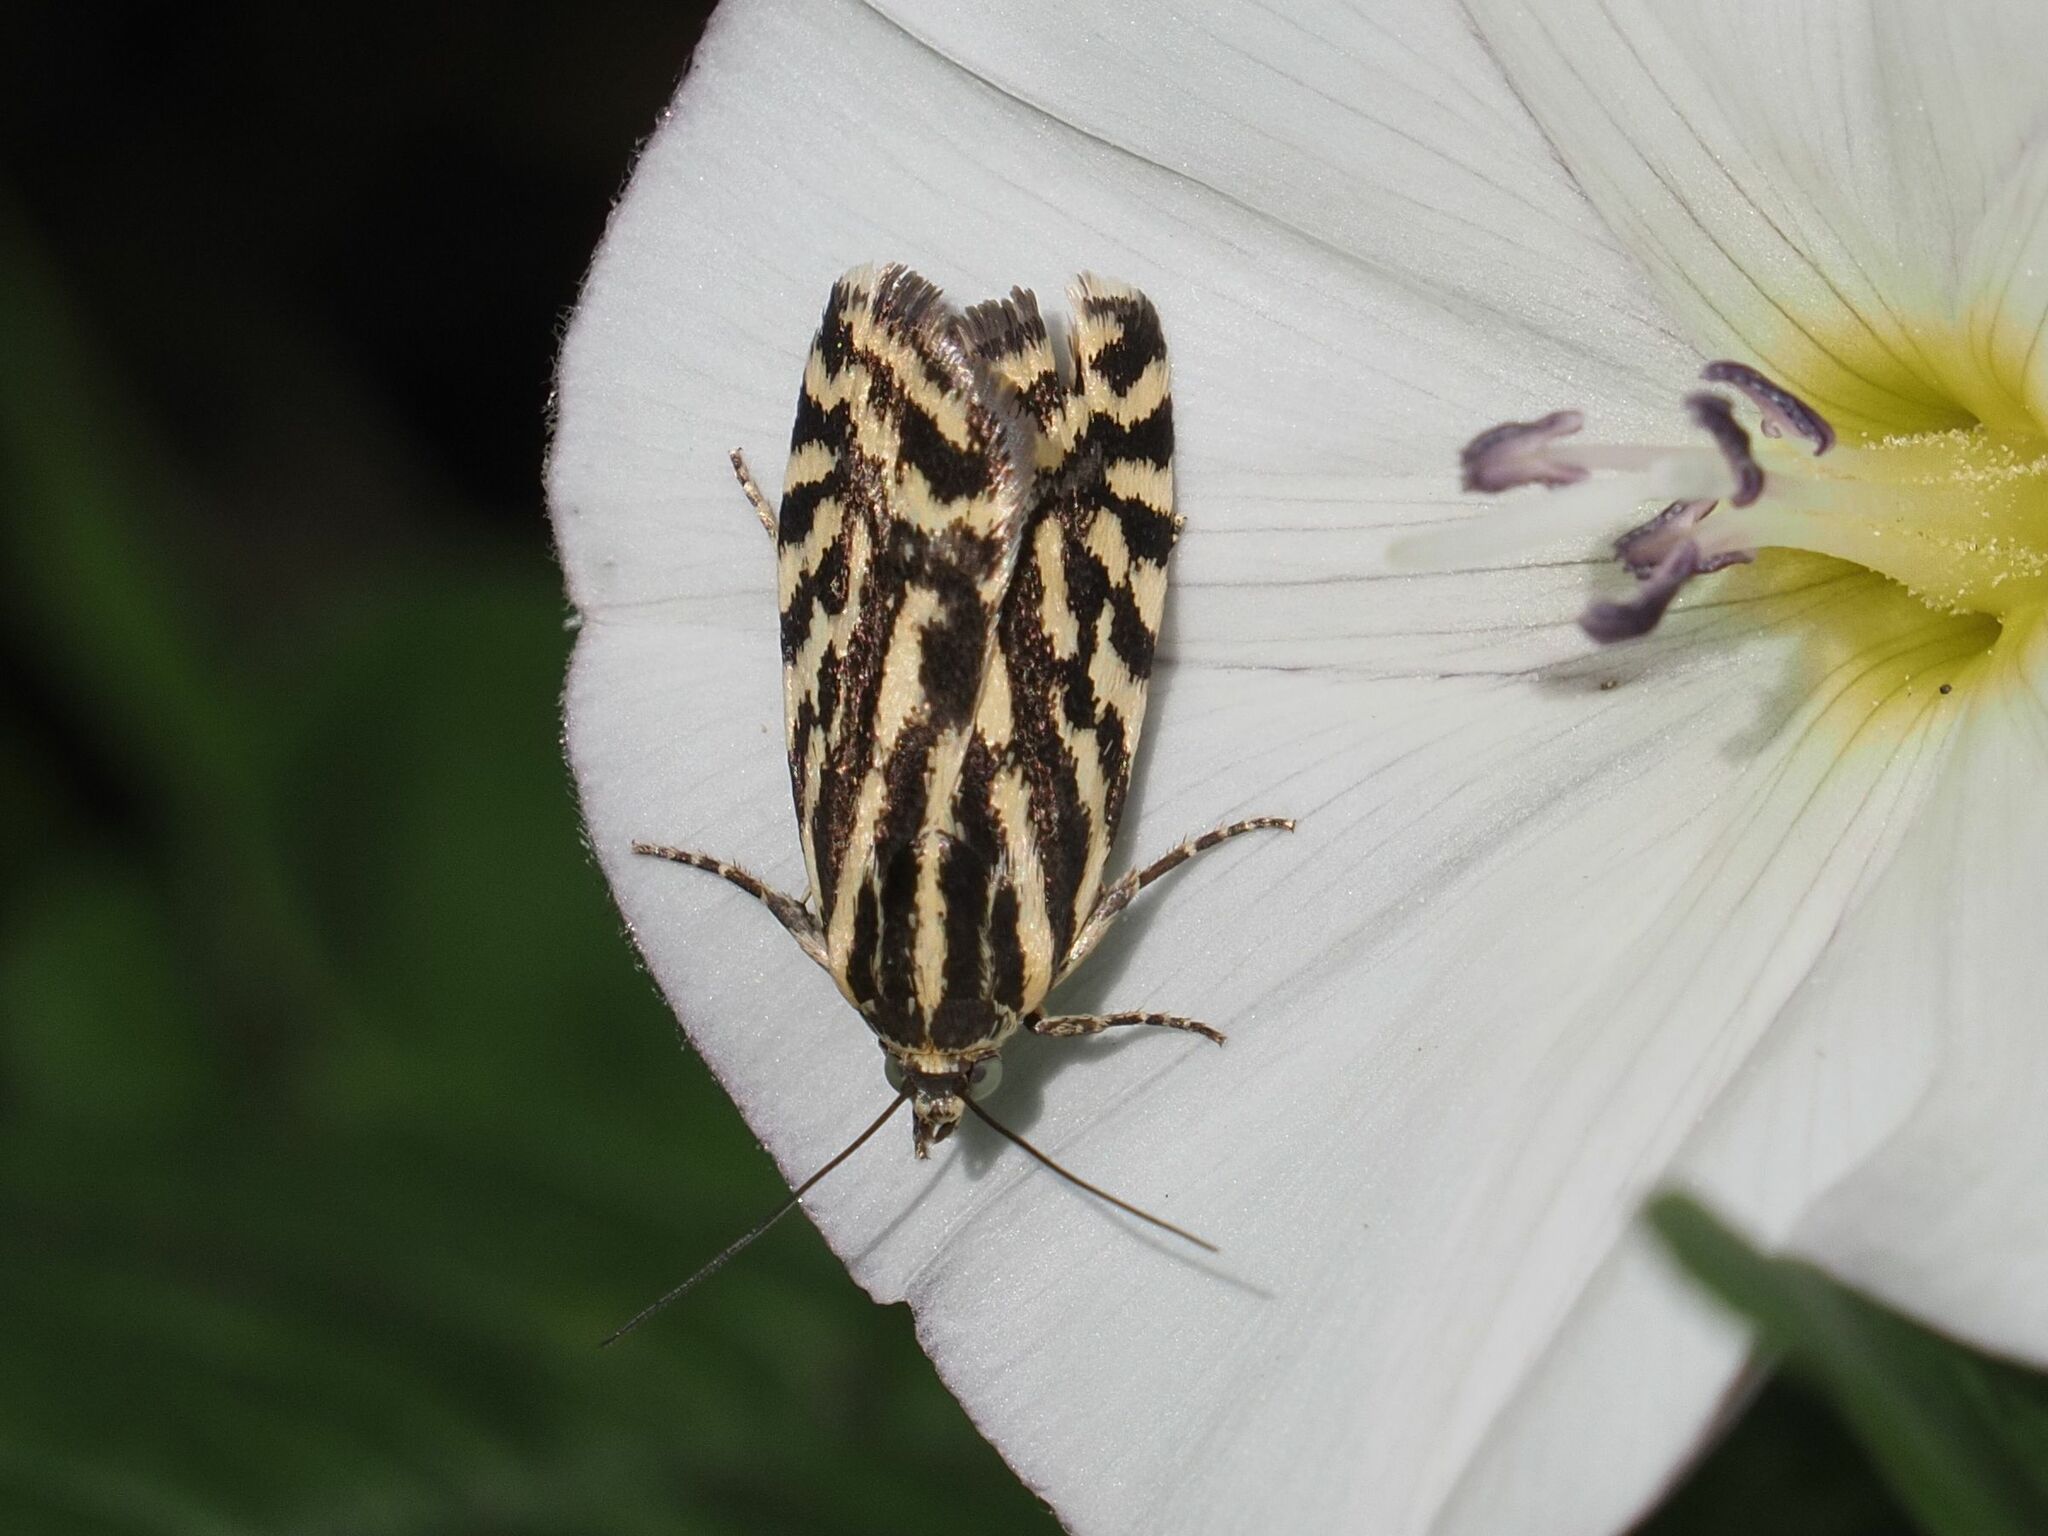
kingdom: Animalia
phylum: Arthropoda
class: Insecta
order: Lepidoptera
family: Noctuidae
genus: Acontia
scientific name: Acontia trabealis
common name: Spotted sulphur
